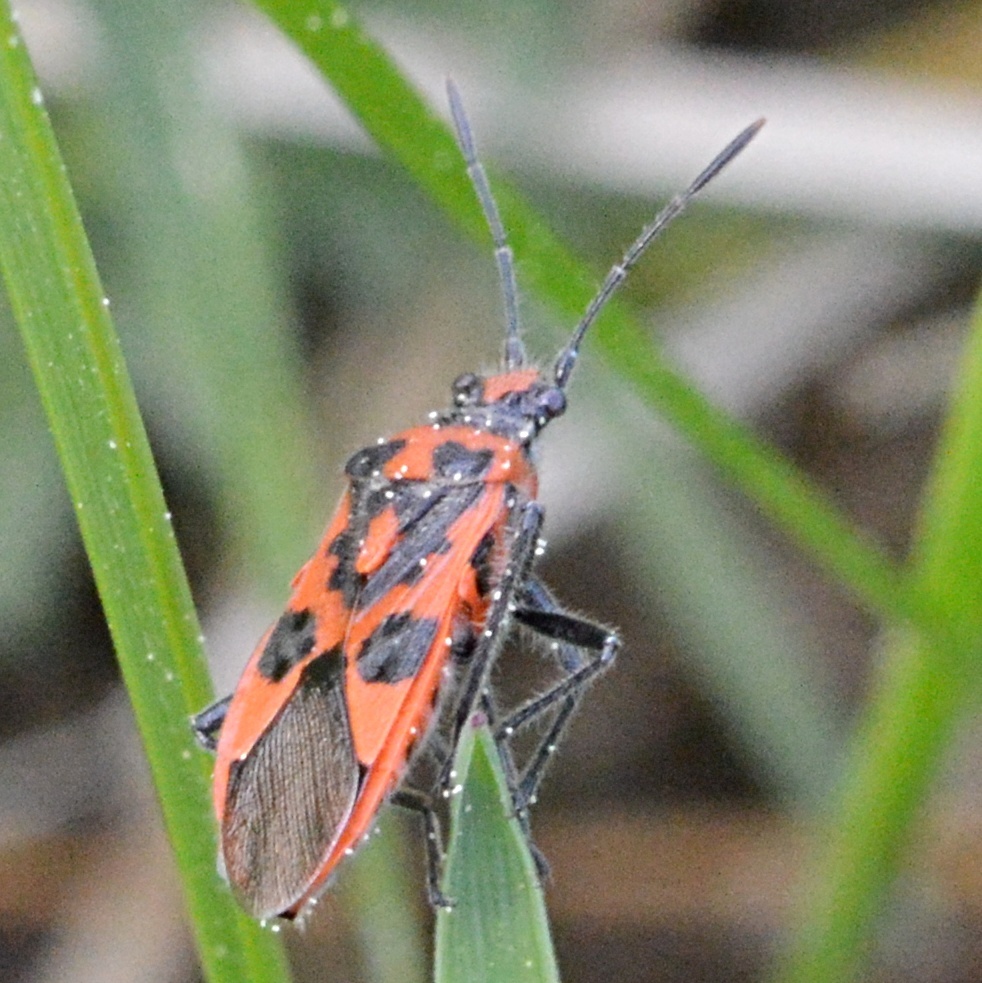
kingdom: Animalia
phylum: Arthropoda
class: Insecta
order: Hemiptera
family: Rhopalidae
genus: Corizus
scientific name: Corizus hyoscyami
